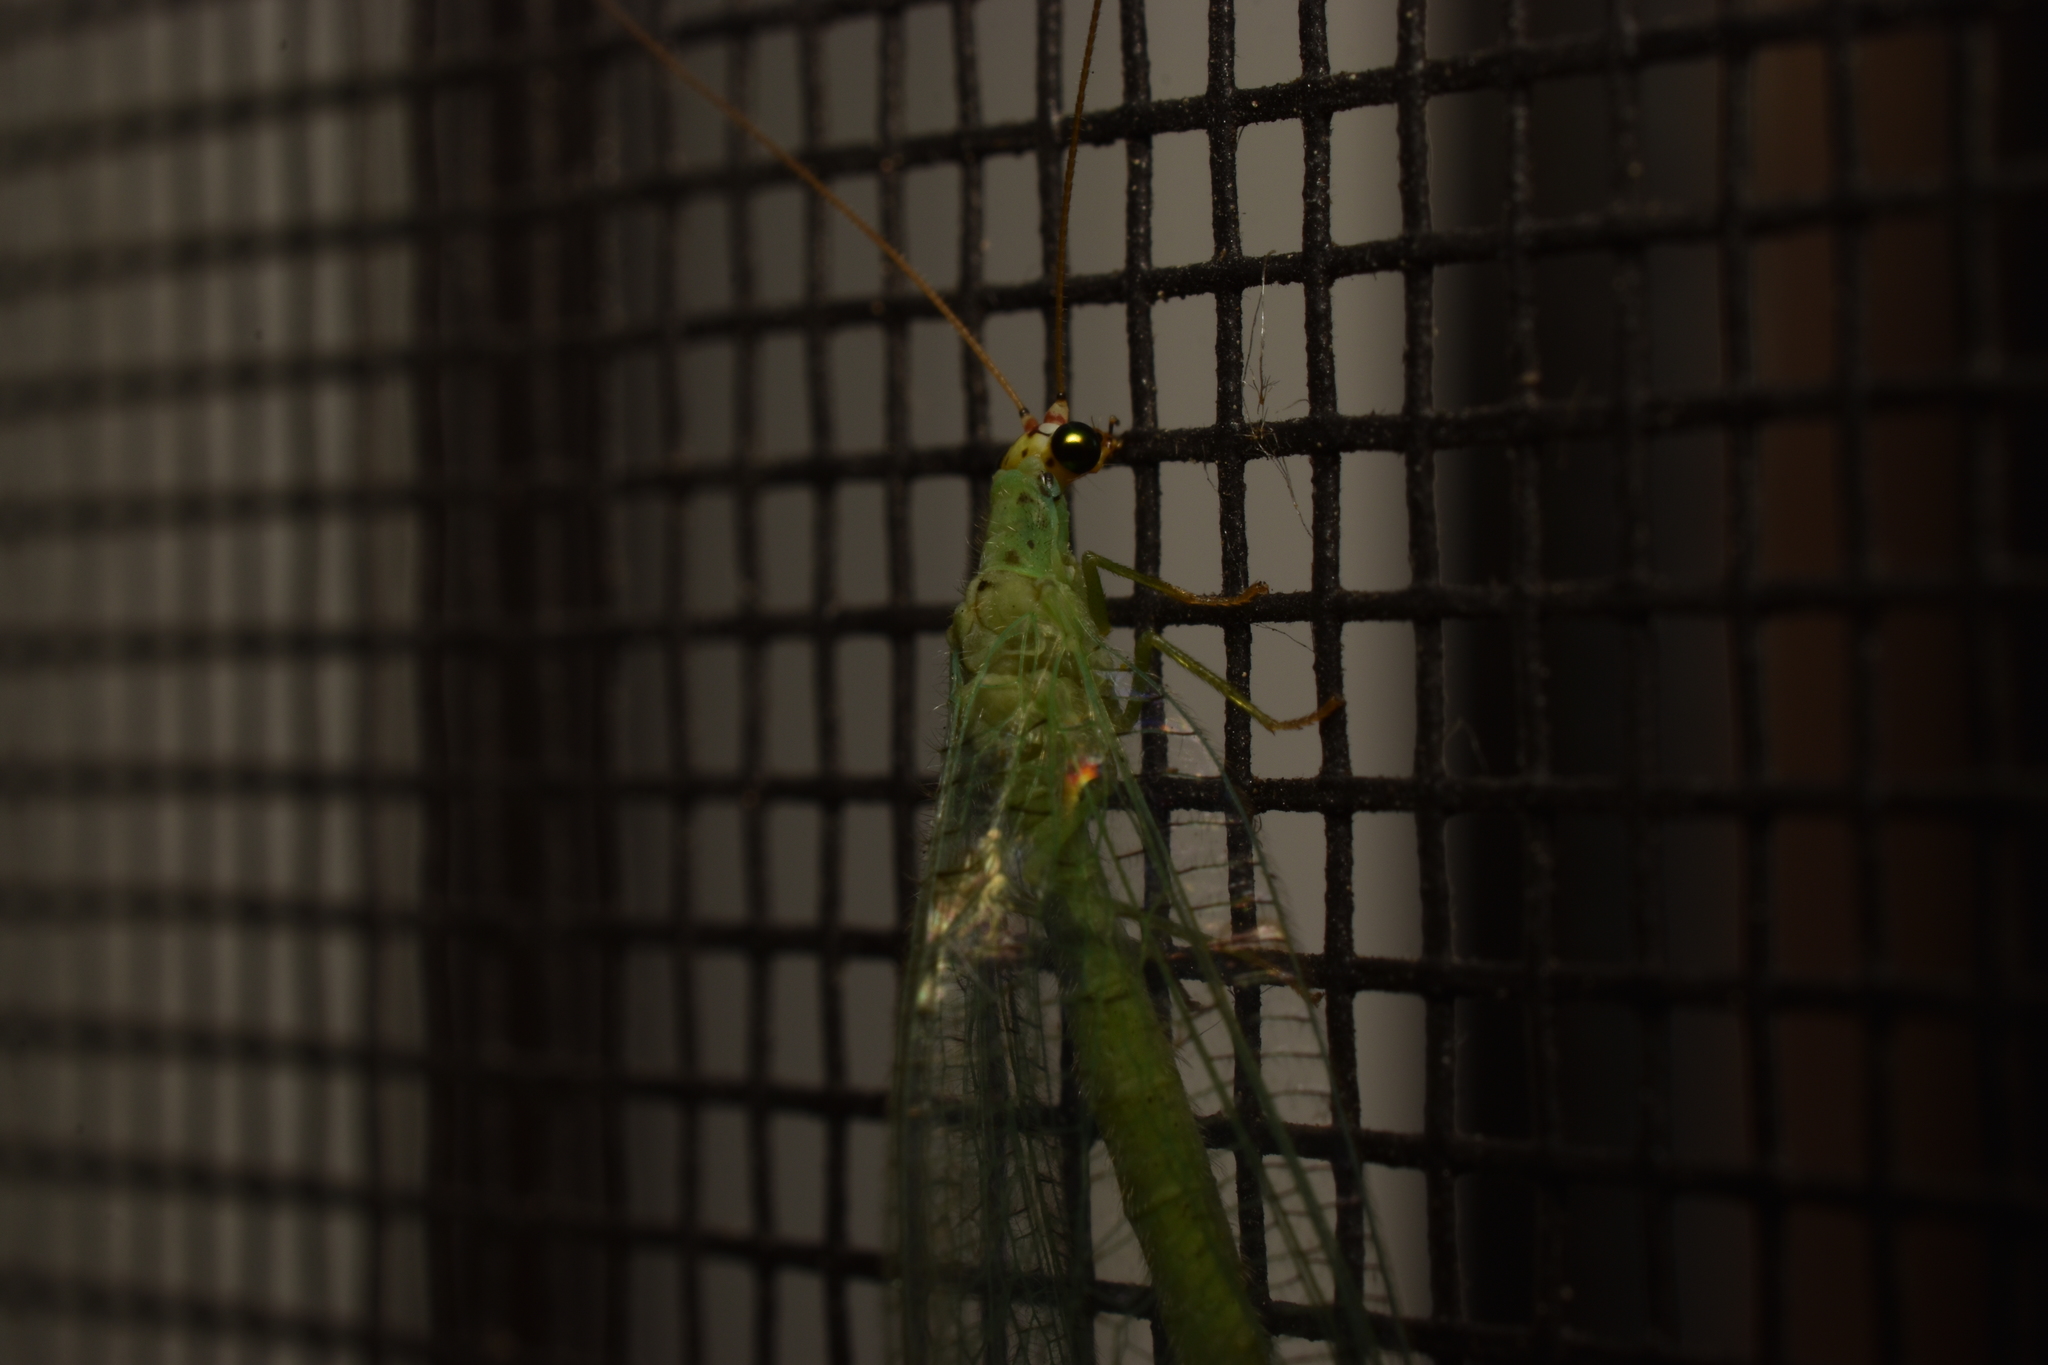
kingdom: Animalia
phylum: Arthropoda
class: Insecta
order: Neuroptera
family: Chrysopidae
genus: Chrysopa
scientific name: Chrysopa oculata
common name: Golden-eyed lacewing
